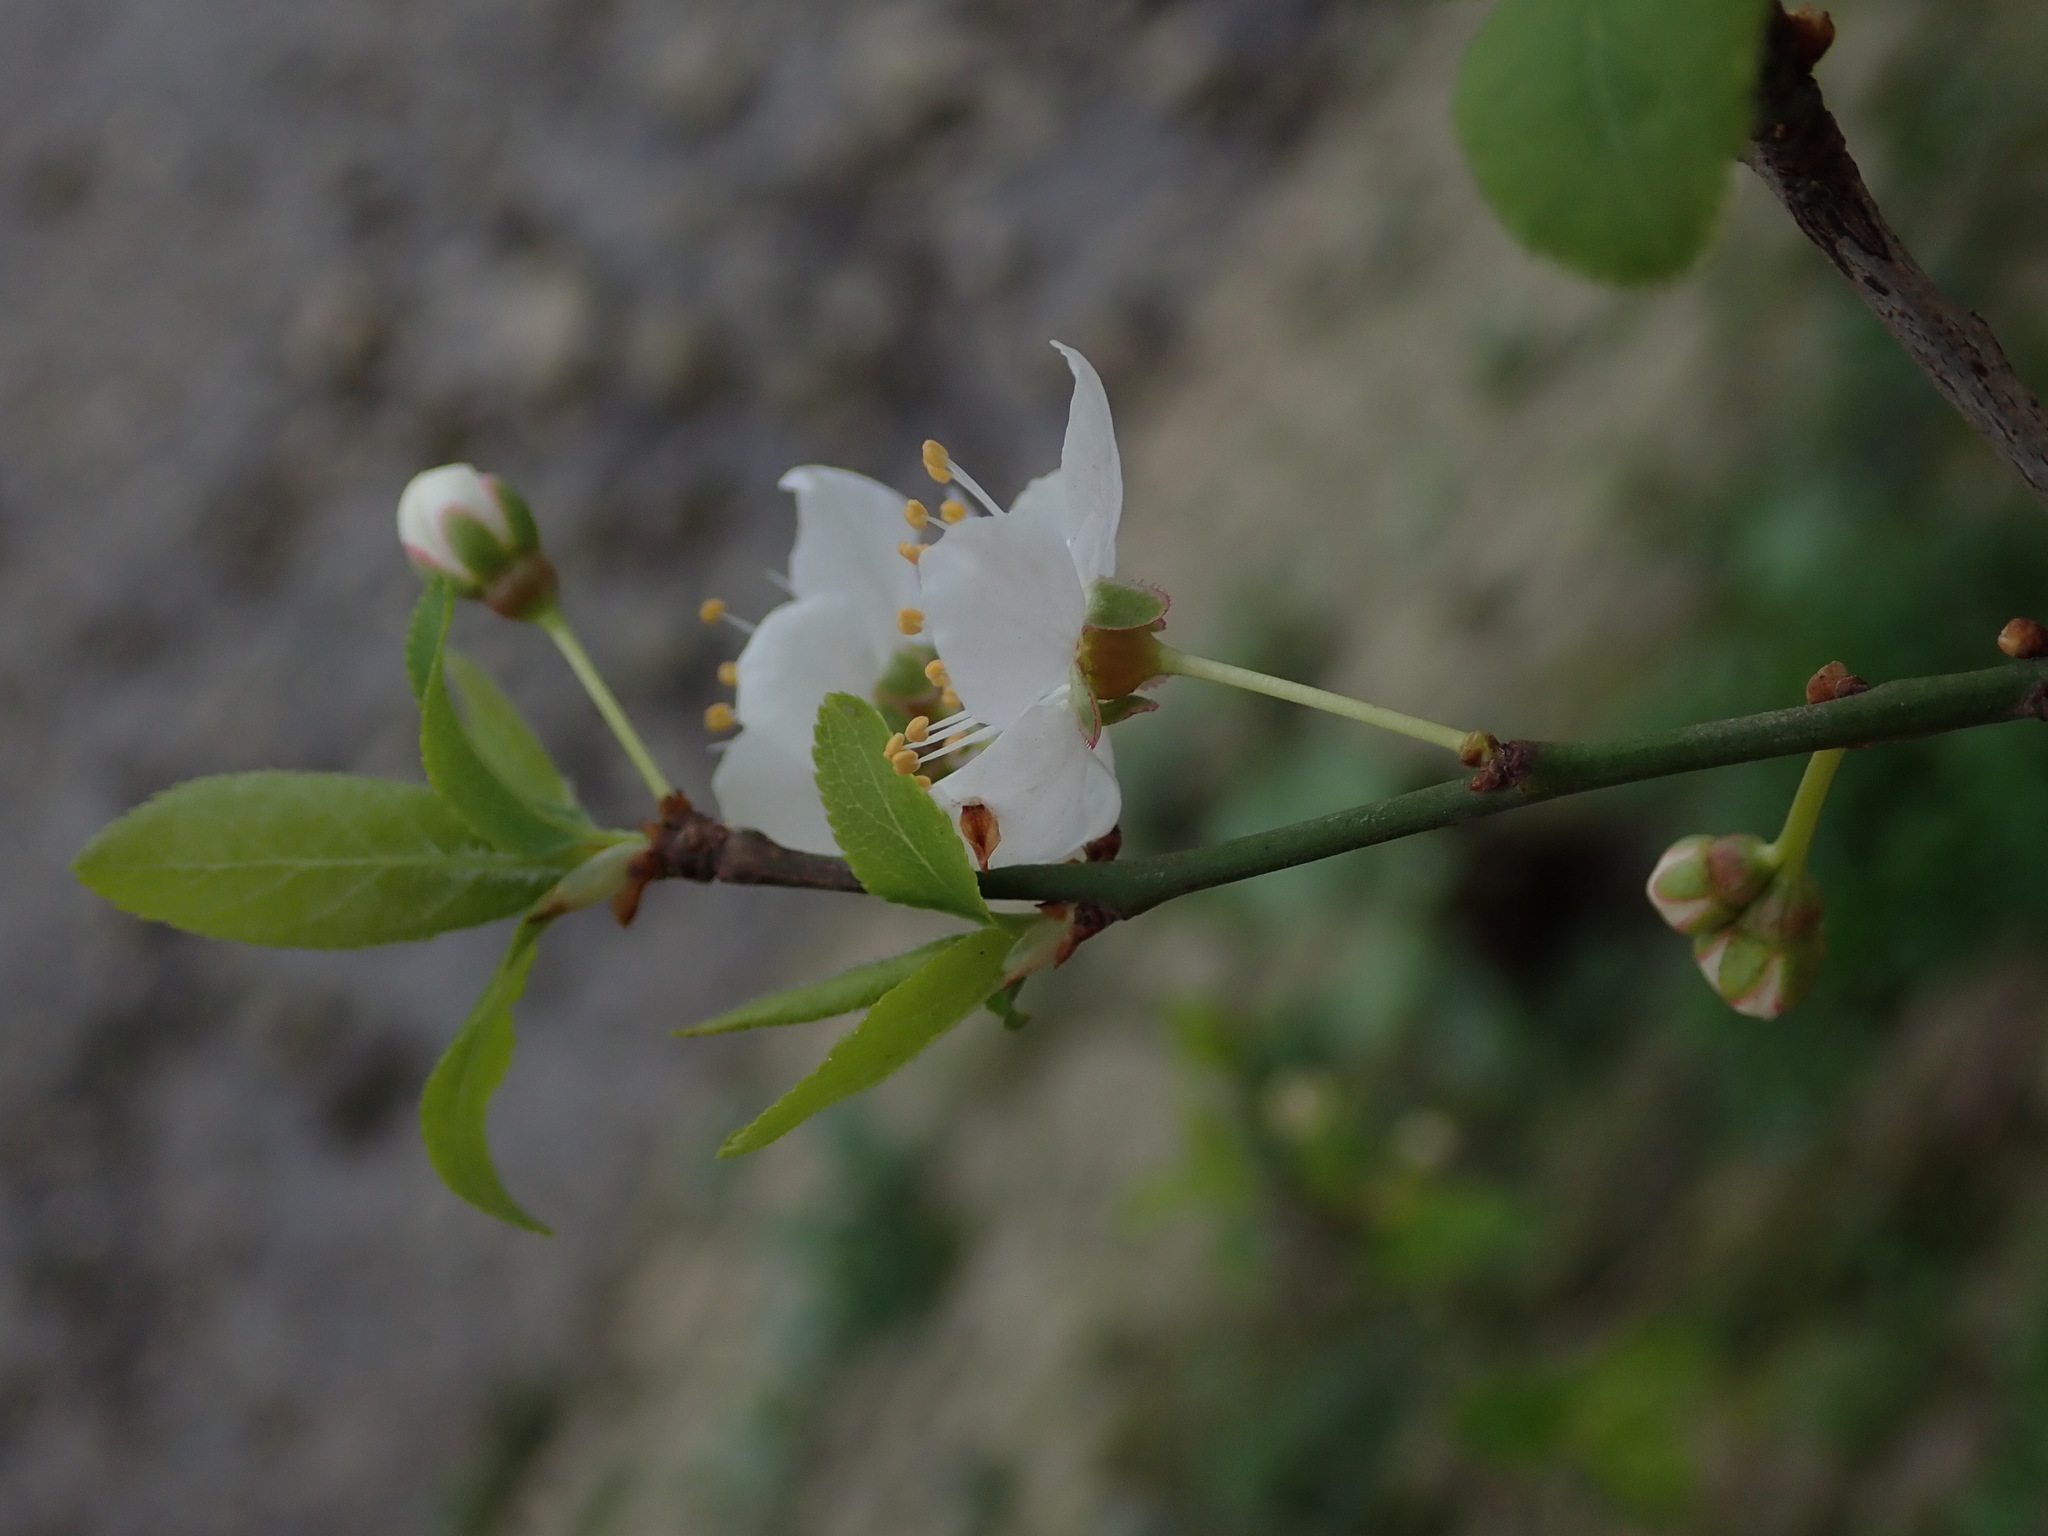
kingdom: Plantae
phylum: Tracheophyta
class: Magnoliopsida
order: Rosales
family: Rosaceae
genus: Prunus
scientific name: Prunus cerasifera
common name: Cherry plum
